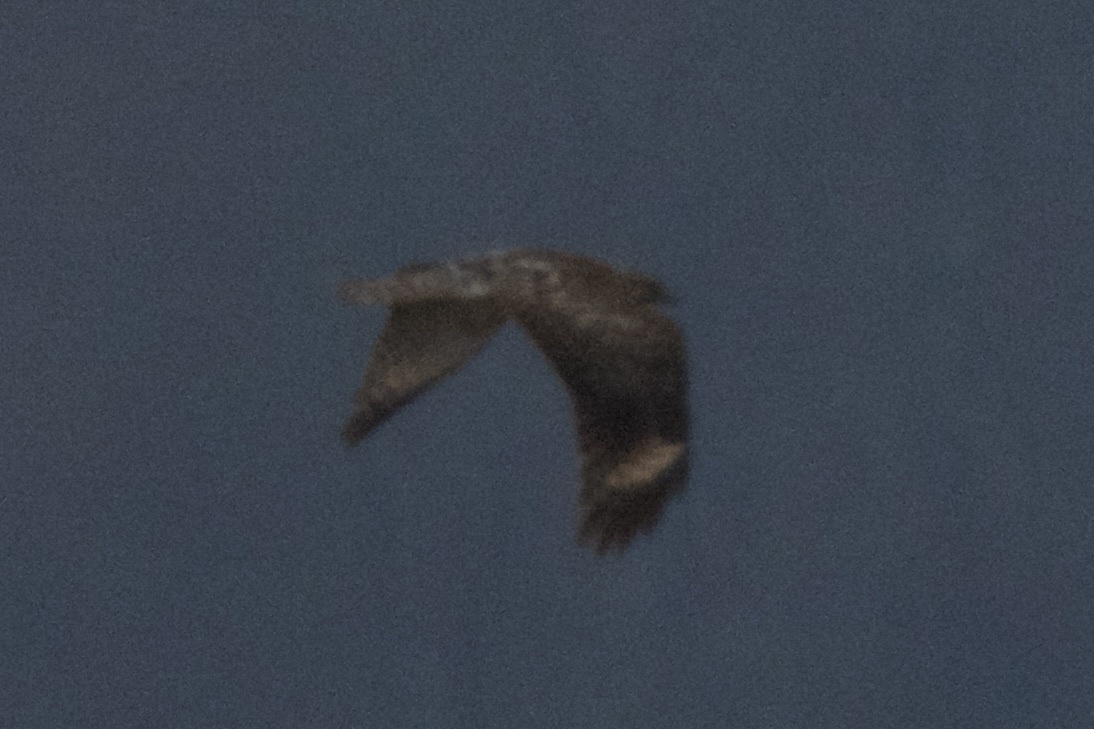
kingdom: Animalia
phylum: Chordata
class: Aves
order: Accipitriformes
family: Accipitridae
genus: Buteo
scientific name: Buteo lineatus
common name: Red-shouldered hawk
